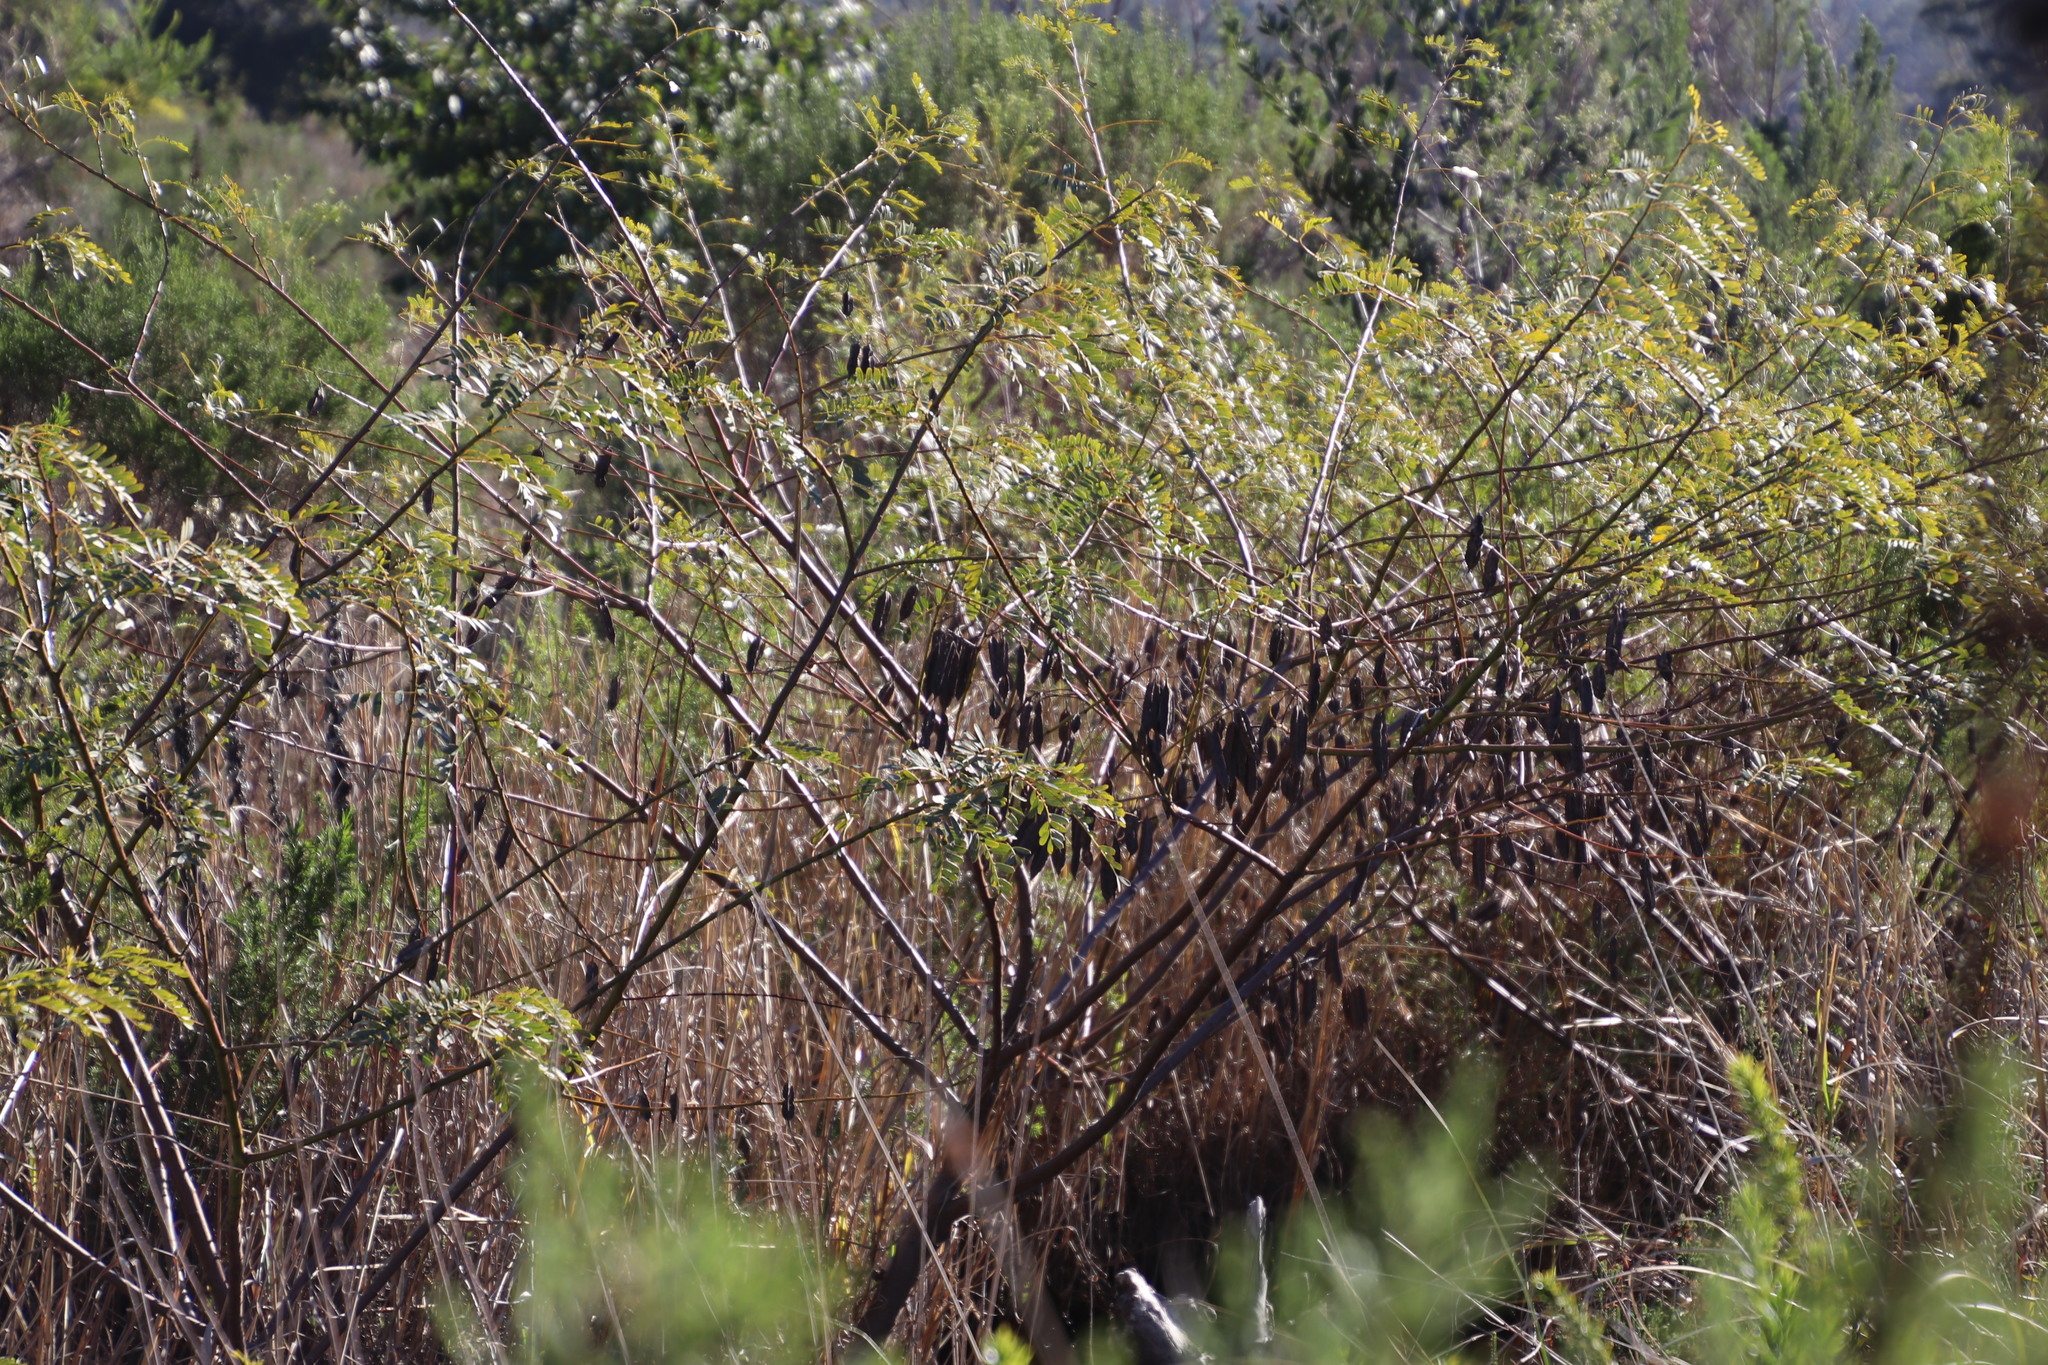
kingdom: Plantae
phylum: Tracheophyta
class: Magnoliopsida
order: Fabales
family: Fabaceae
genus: Sesbania
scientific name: Sesbania punicea
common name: Rattlebox
